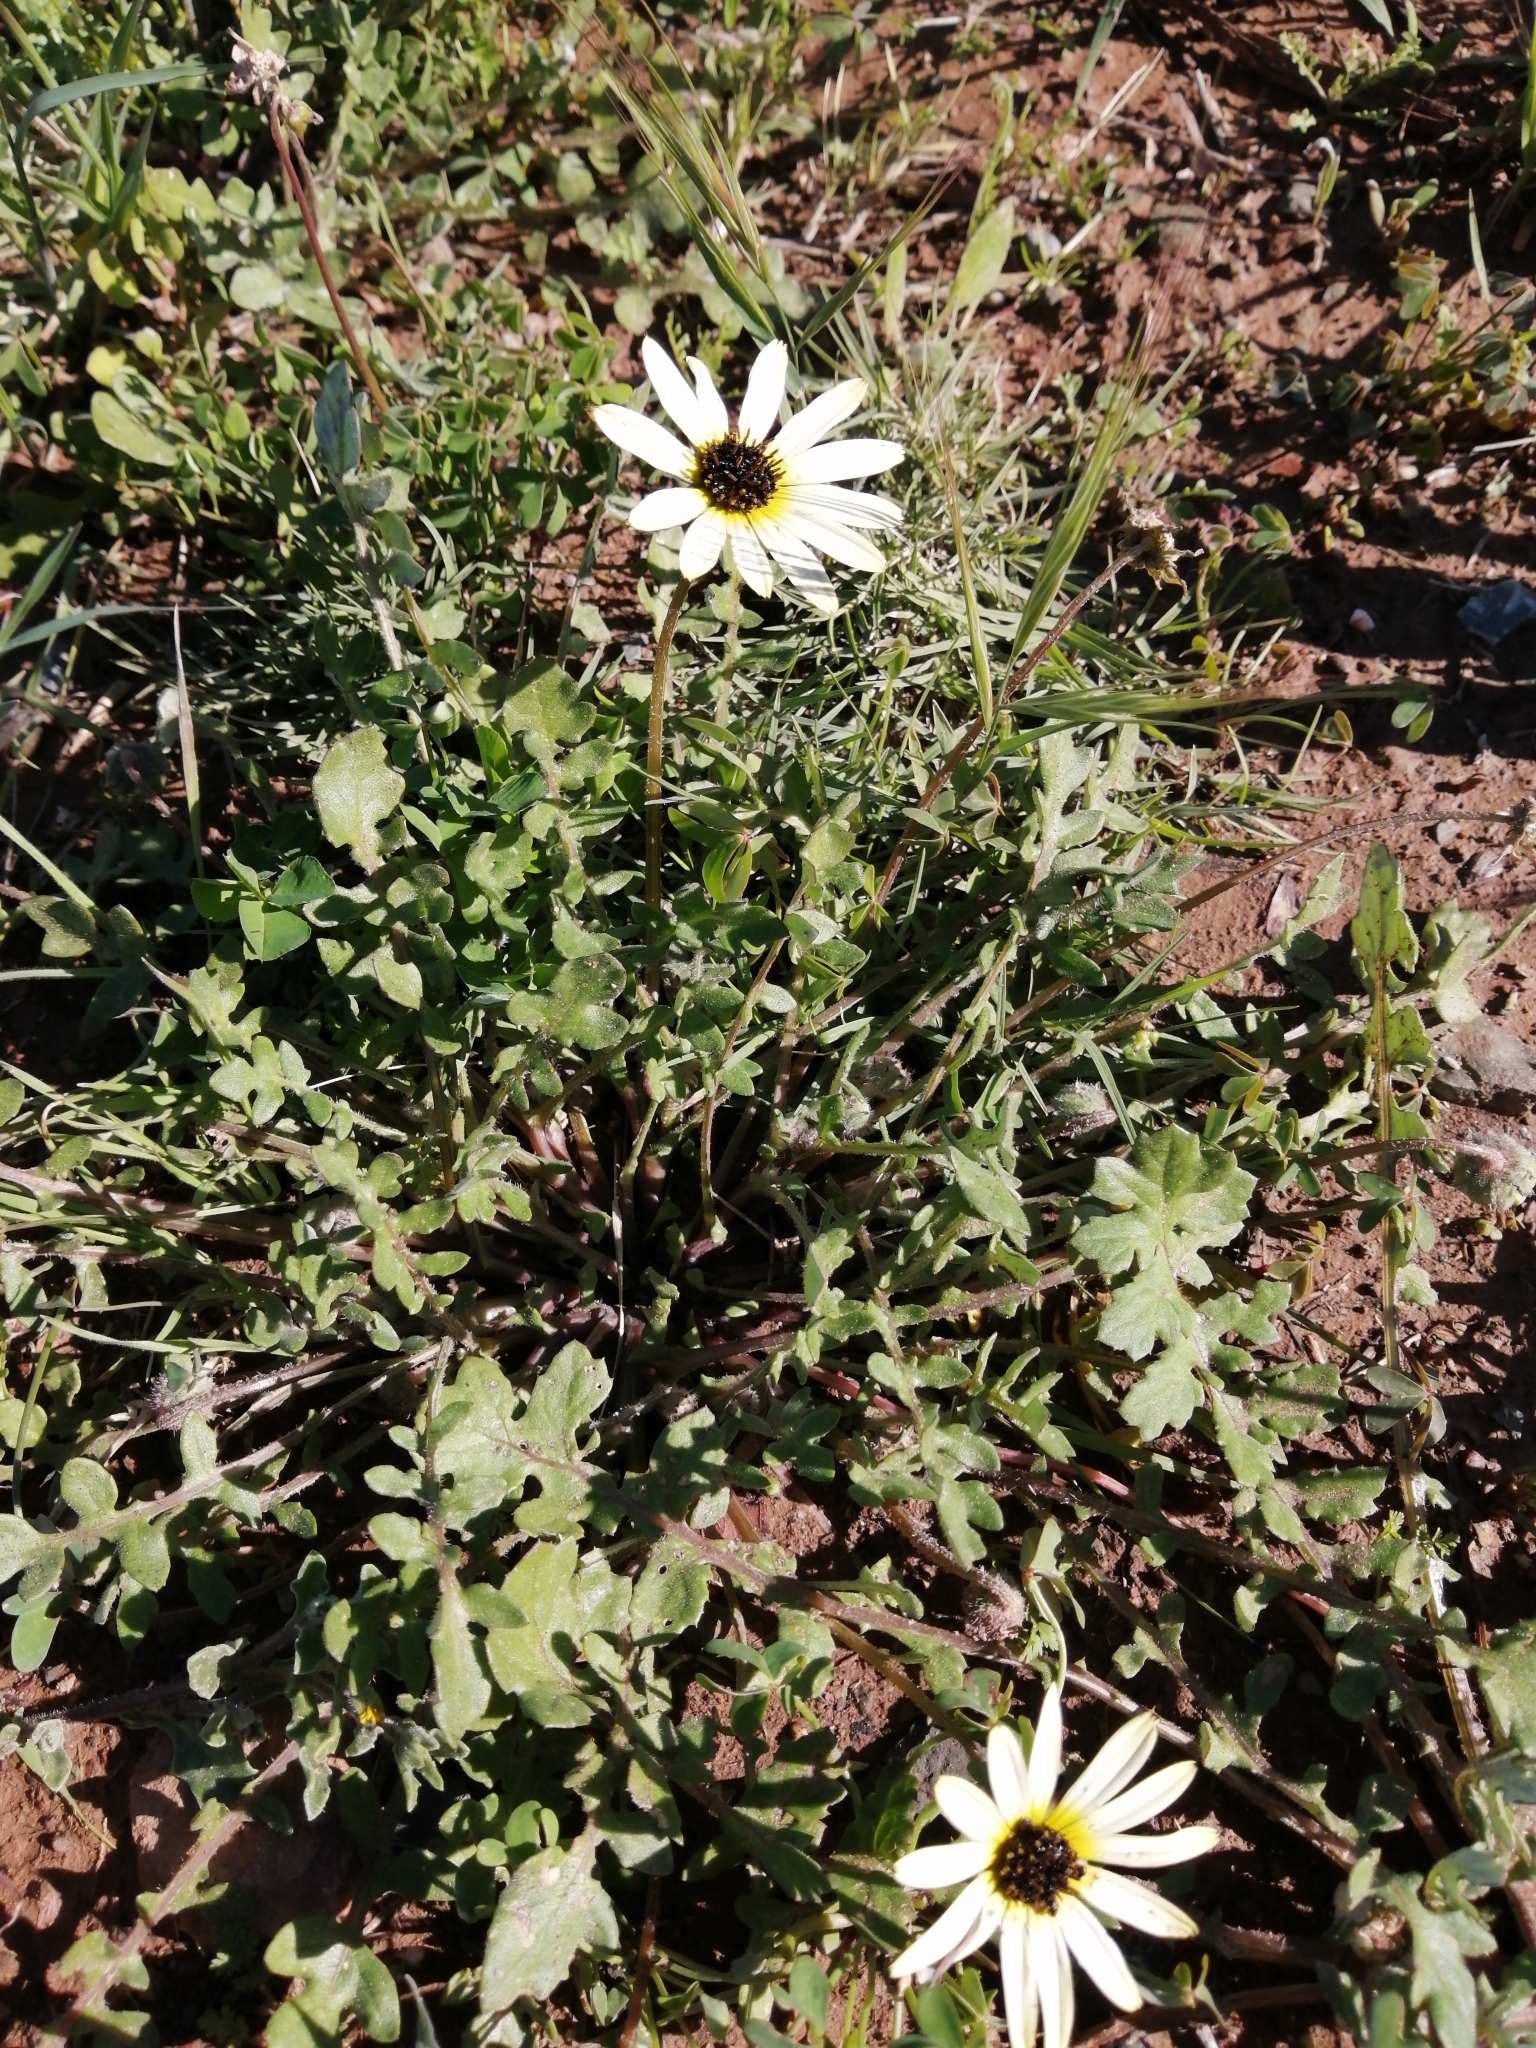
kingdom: Plantae
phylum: Tracheophyta
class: Magnoliopsida
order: Asterales
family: Asteraceae
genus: Arctotheca
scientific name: Arctotheca calendula
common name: Capeweed
